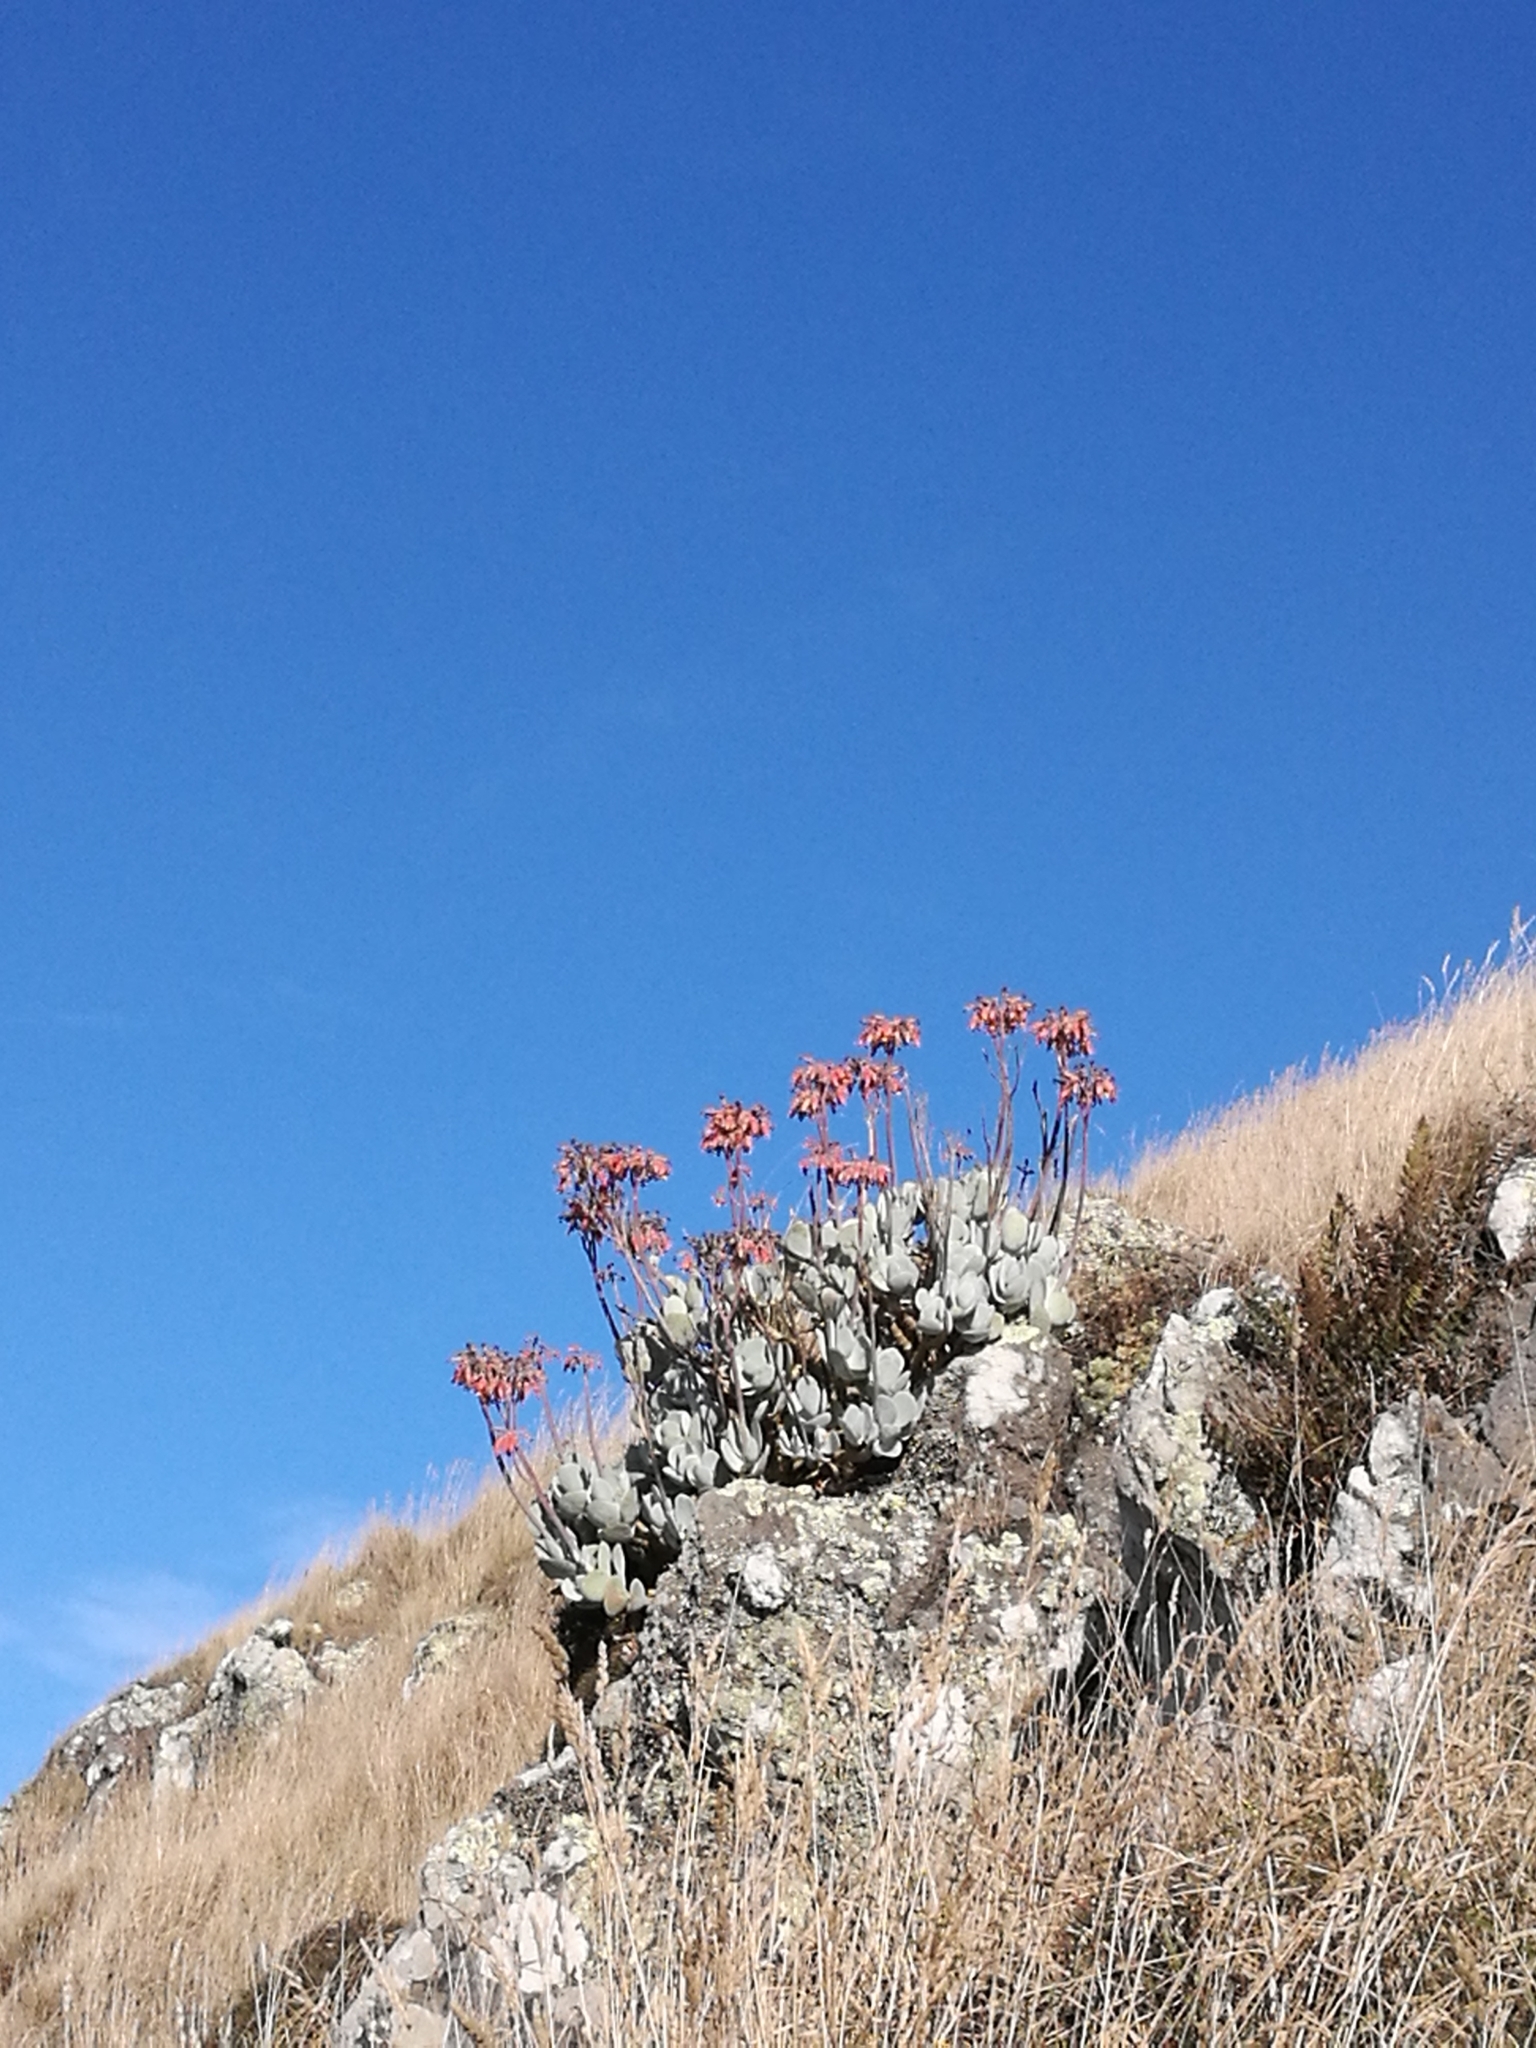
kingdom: Plantae
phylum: Tracheophyta
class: Magnoliopsida
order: Saxifragales
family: Crassulaceae
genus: Cotyledon
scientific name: Cotyledon orbiculata
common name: Pig's ear
